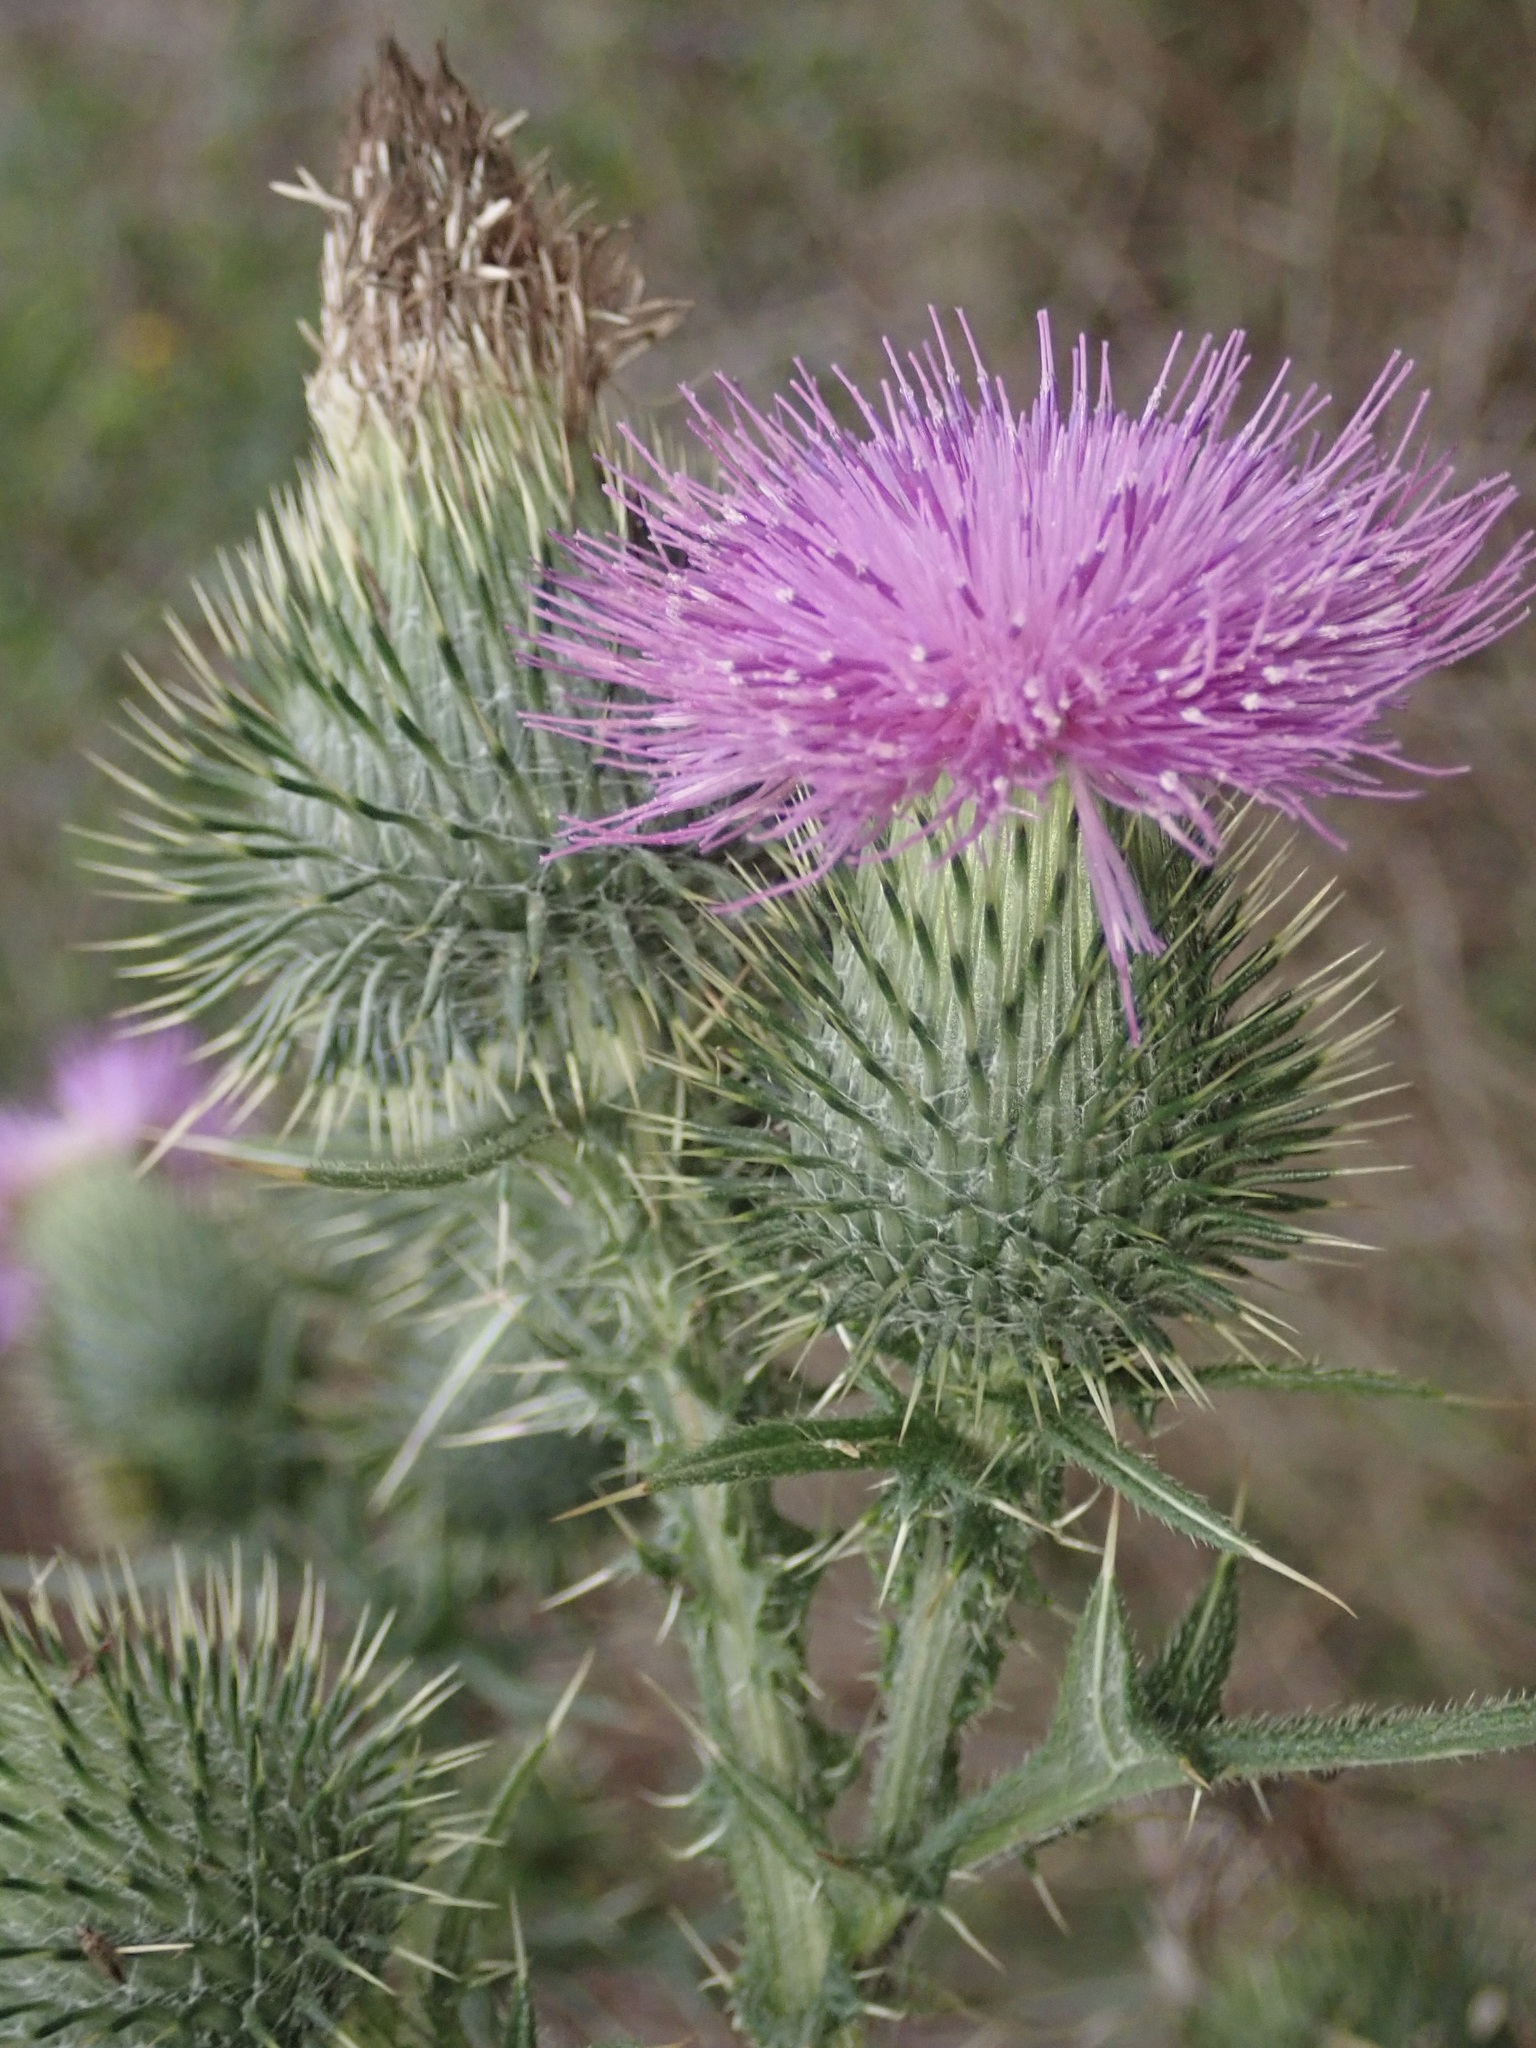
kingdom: Plantae
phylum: Tracheophyta
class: Magnoliopsida
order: Asterales
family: Asteraceae
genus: Cirsium
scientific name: Cirsium vulgare
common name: Bull thistle
